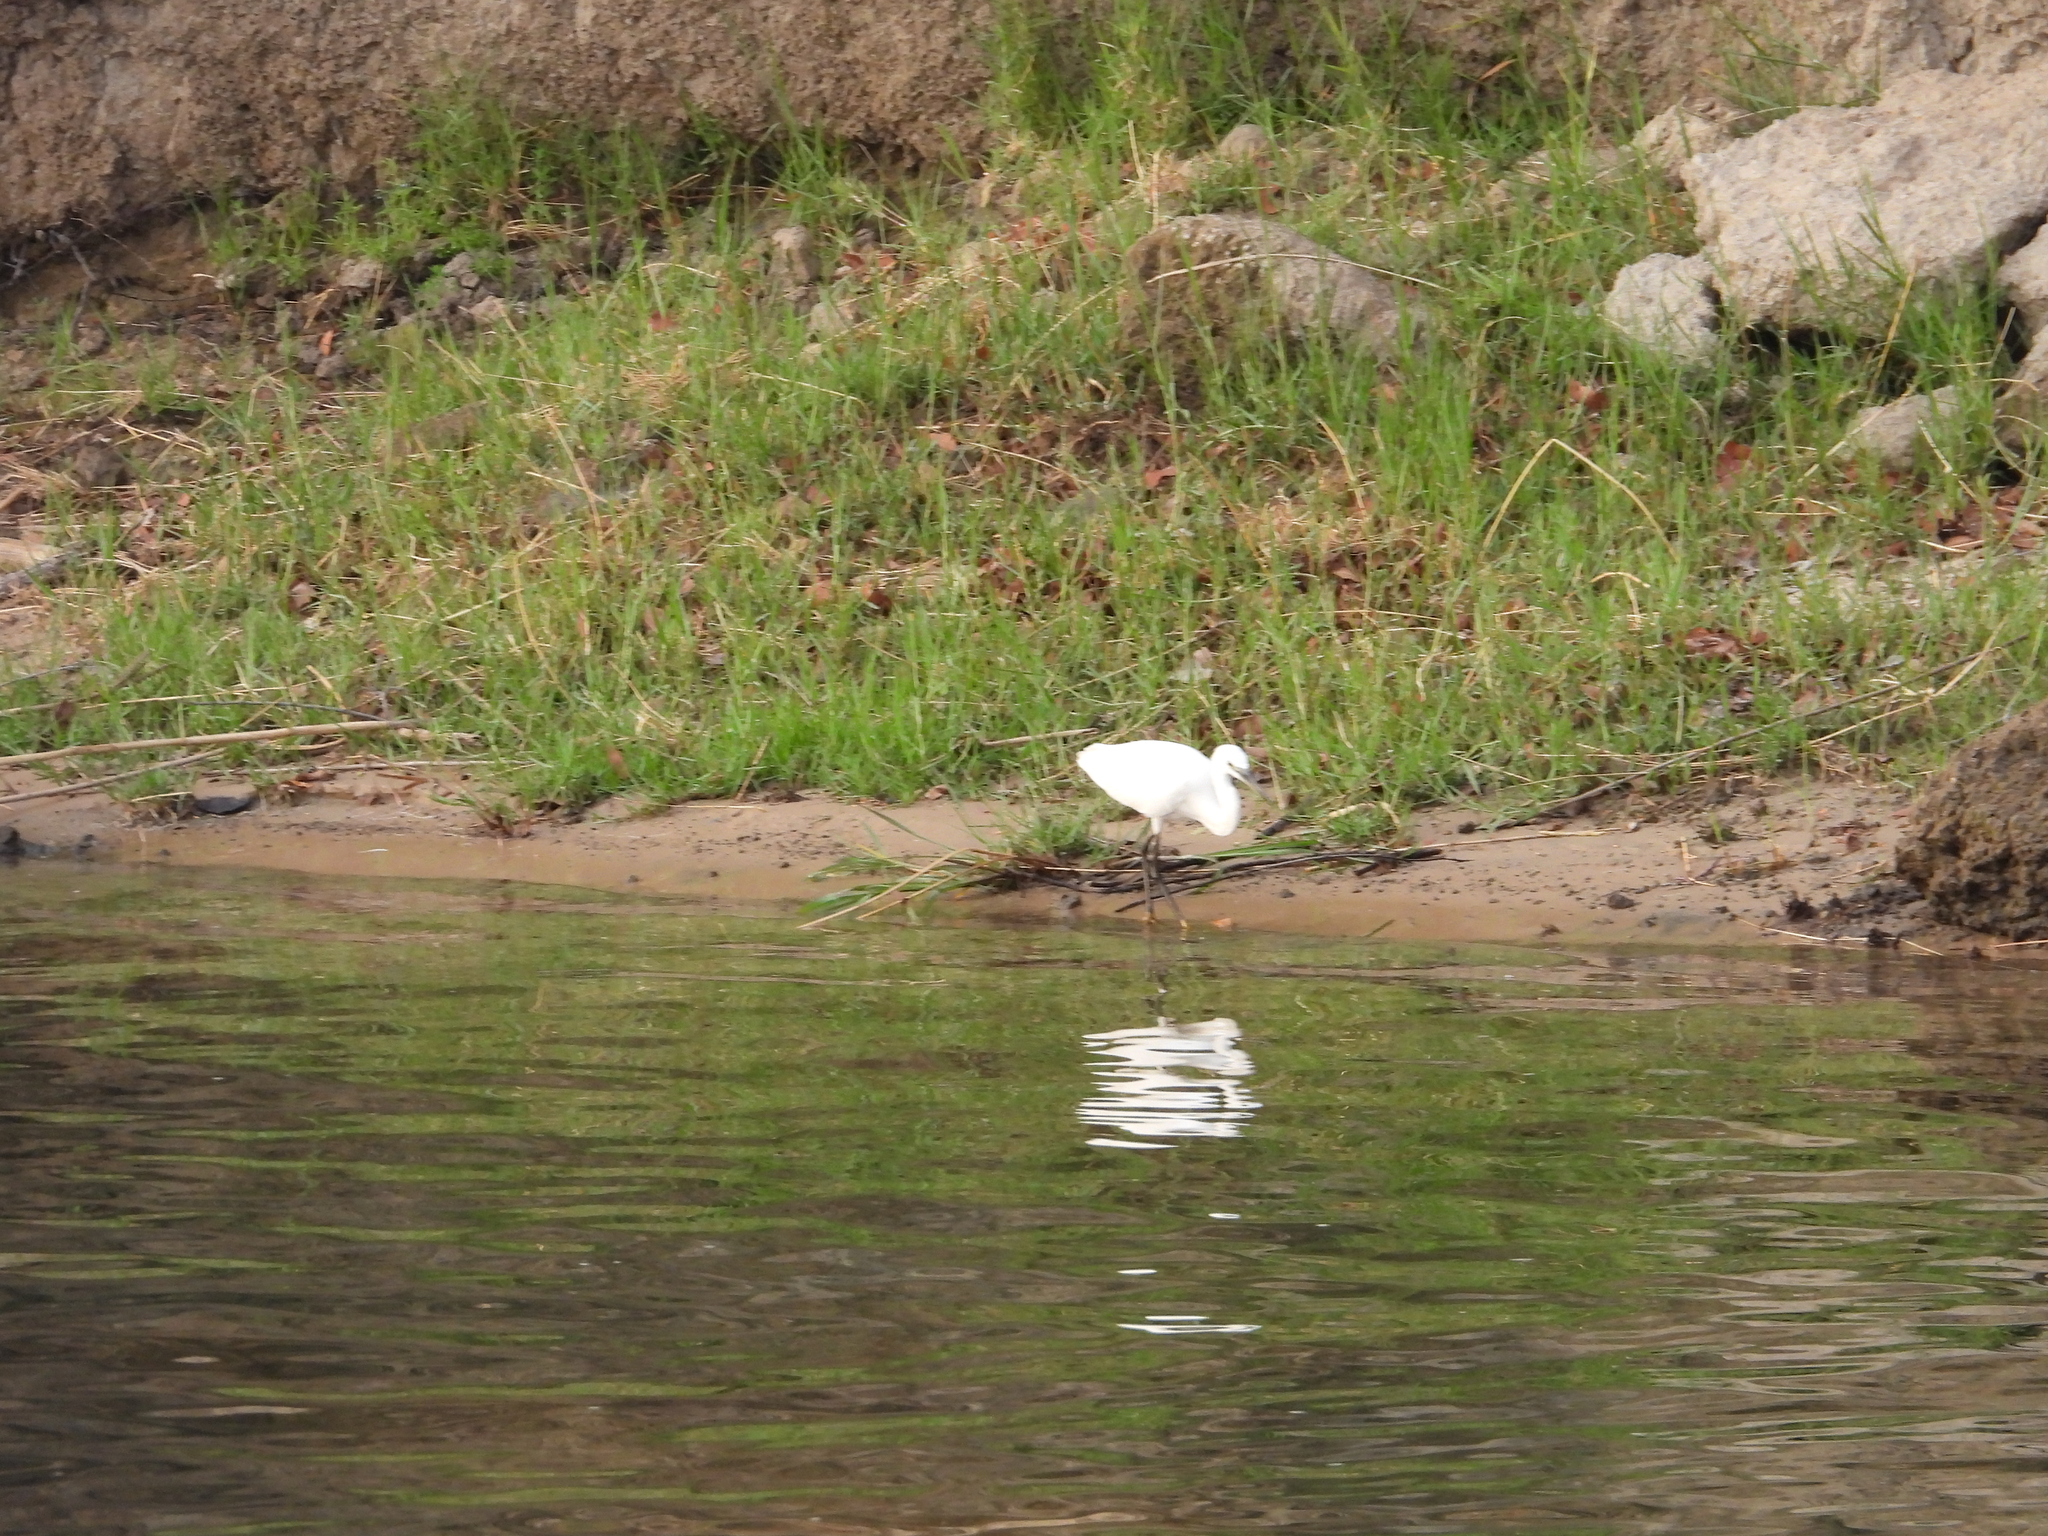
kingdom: Animalia
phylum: Chordata
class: Aves
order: Pelecaniformes
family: Ardeidae
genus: Egretta
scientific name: Egretta garzetta
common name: Little egret
